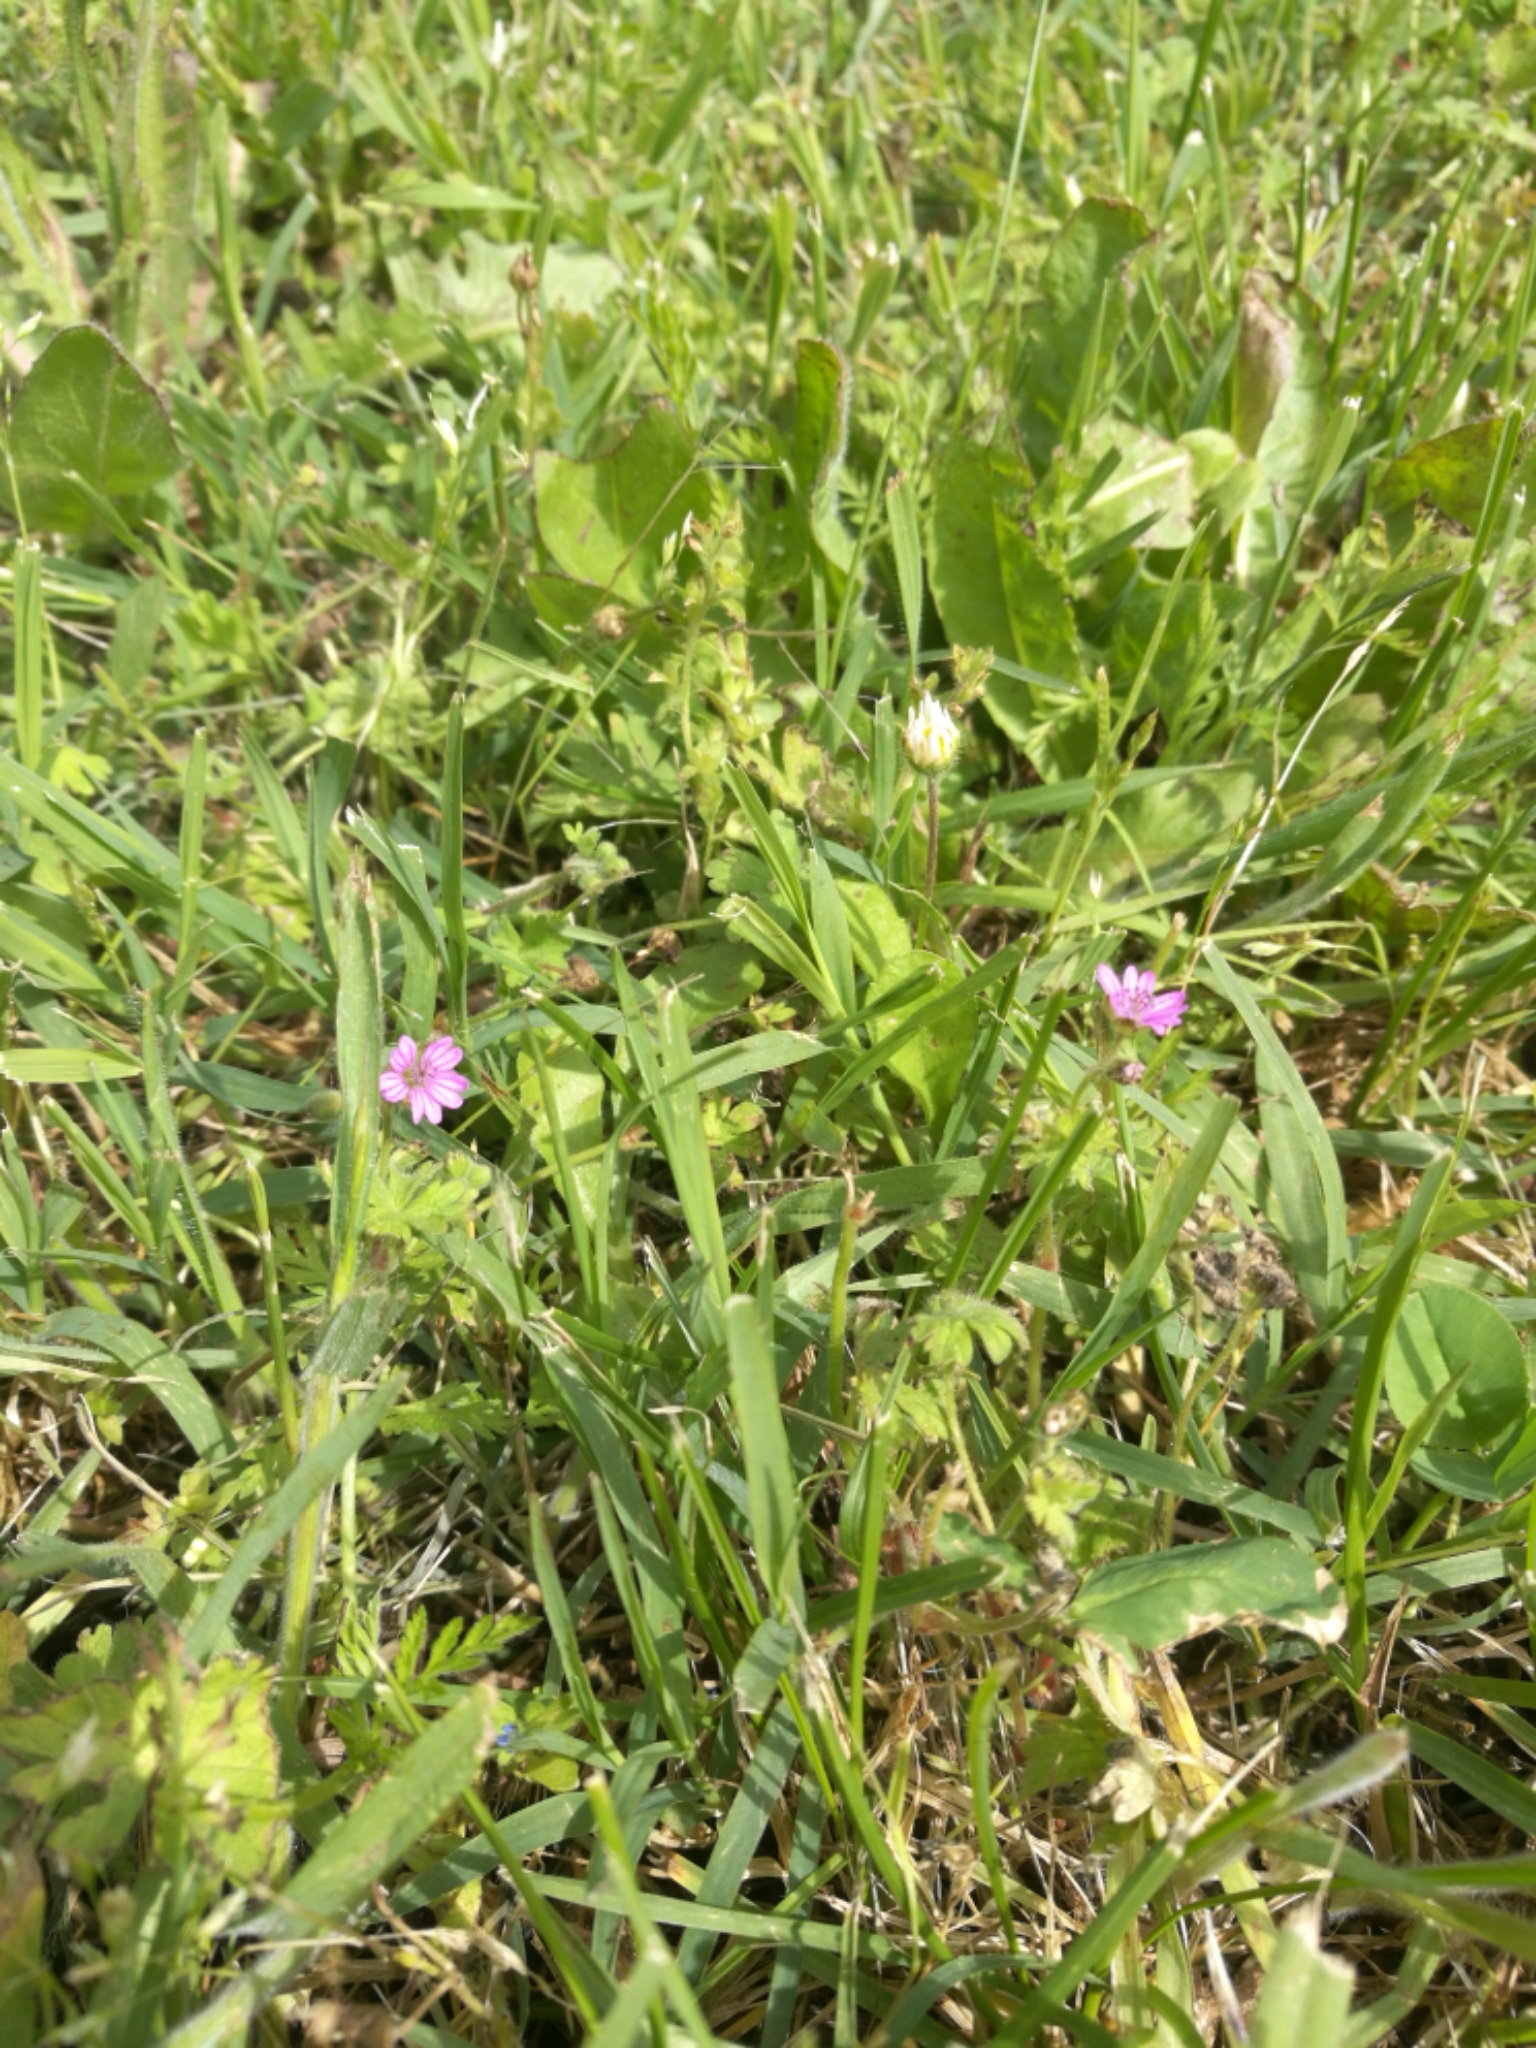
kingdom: Plantae
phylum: Tracheophyta
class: Magnoliopsida
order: Geraniales
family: Geraniaceae
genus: Geranium
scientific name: Geranium molle
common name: Dove's-foot crane's-bill
